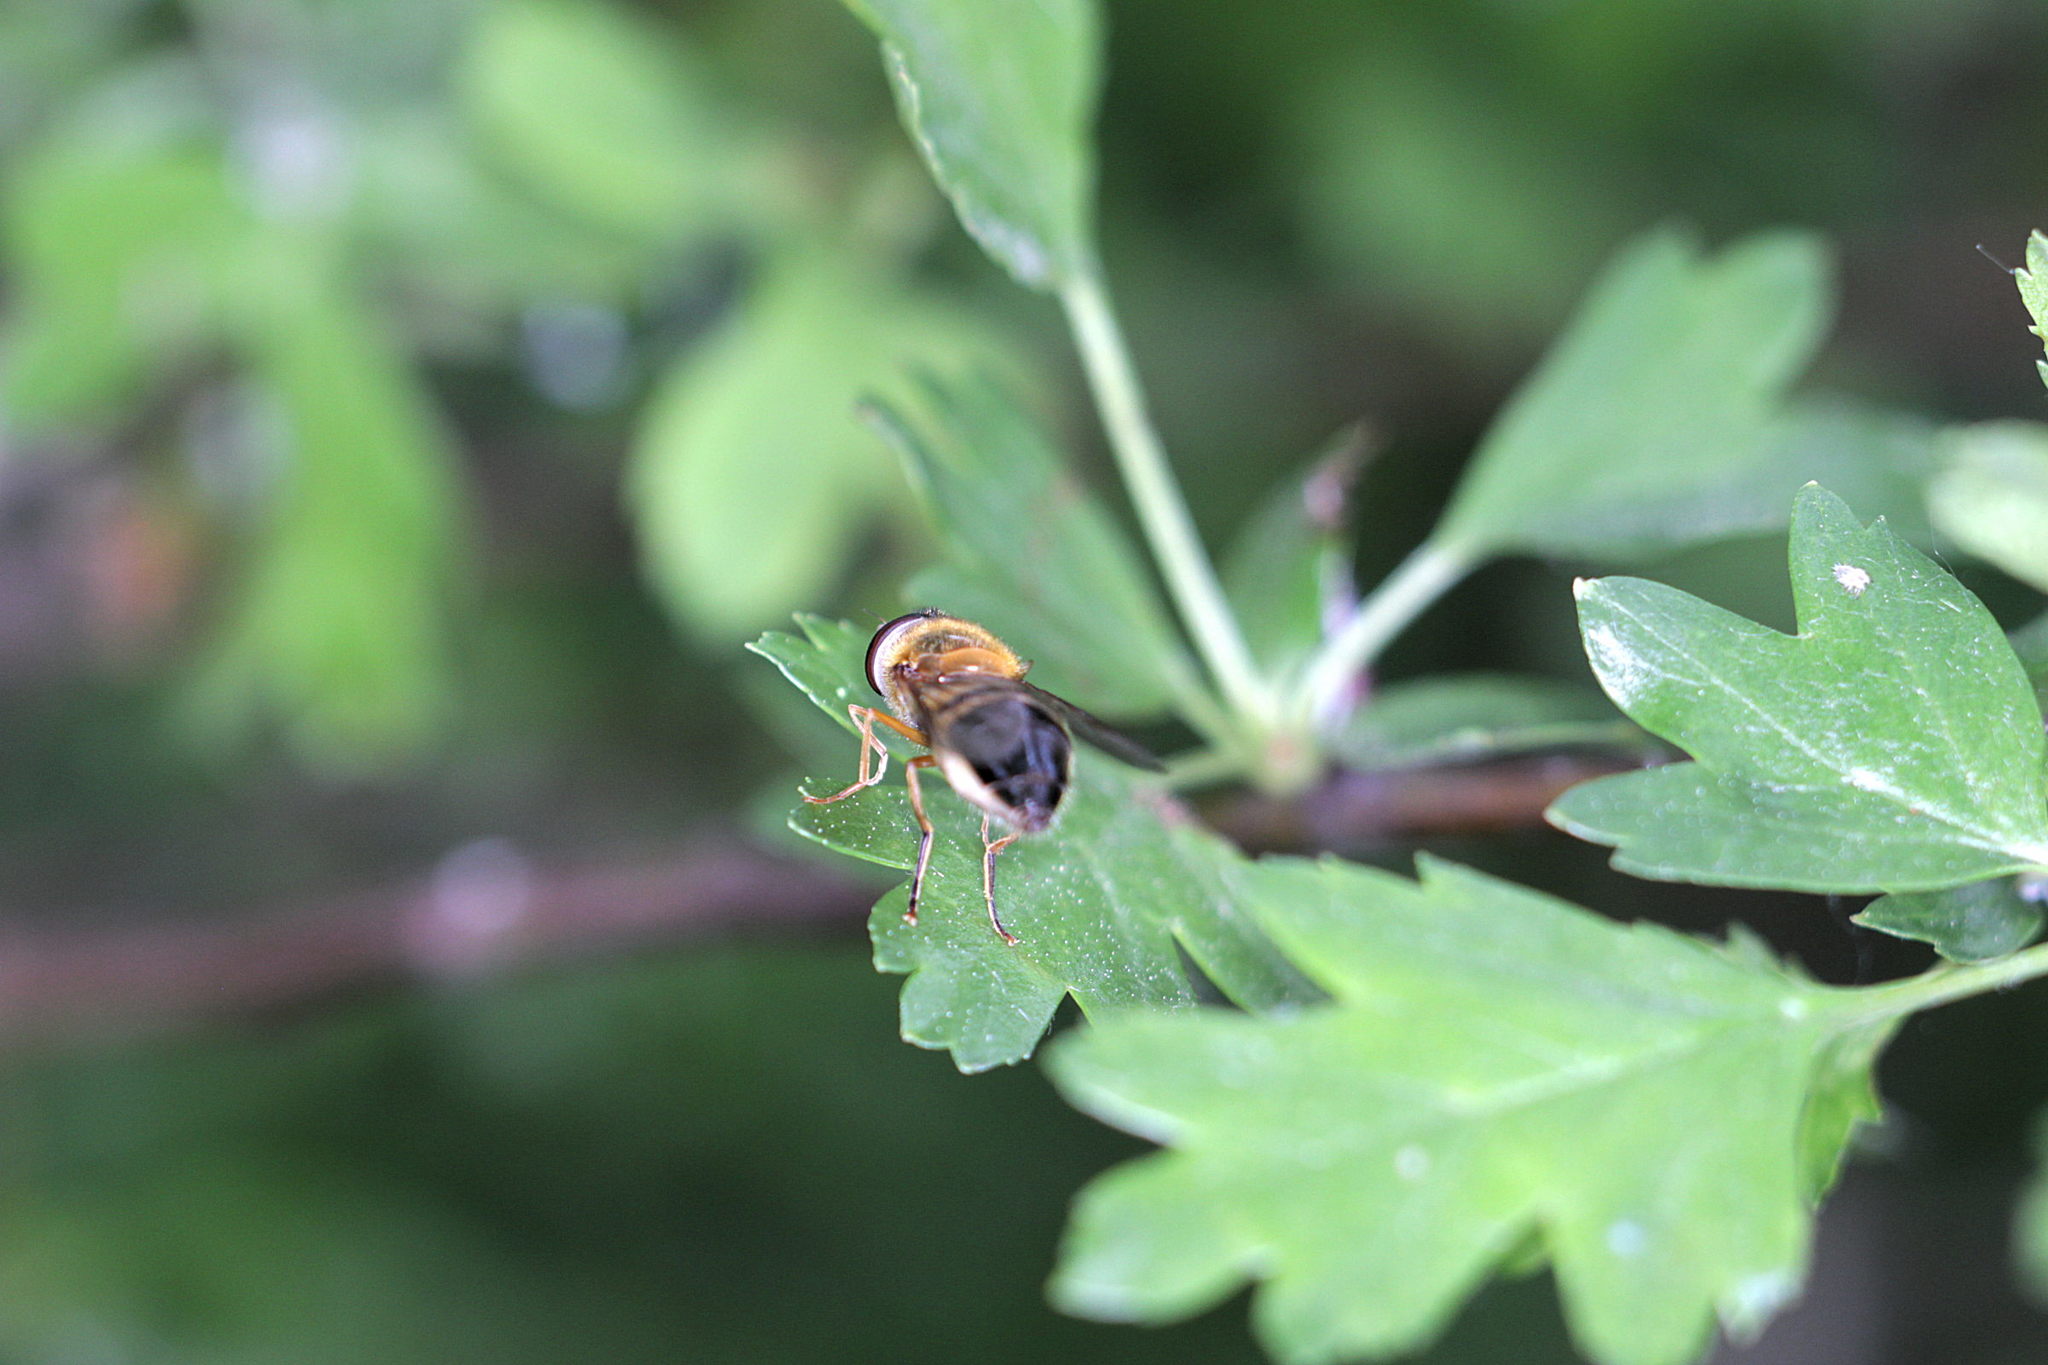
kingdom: Animalia
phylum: Arthropoda
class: Insecta
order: Diptera
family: Syrphidae
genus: Epistrophe
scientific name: Epistrophe eligans
